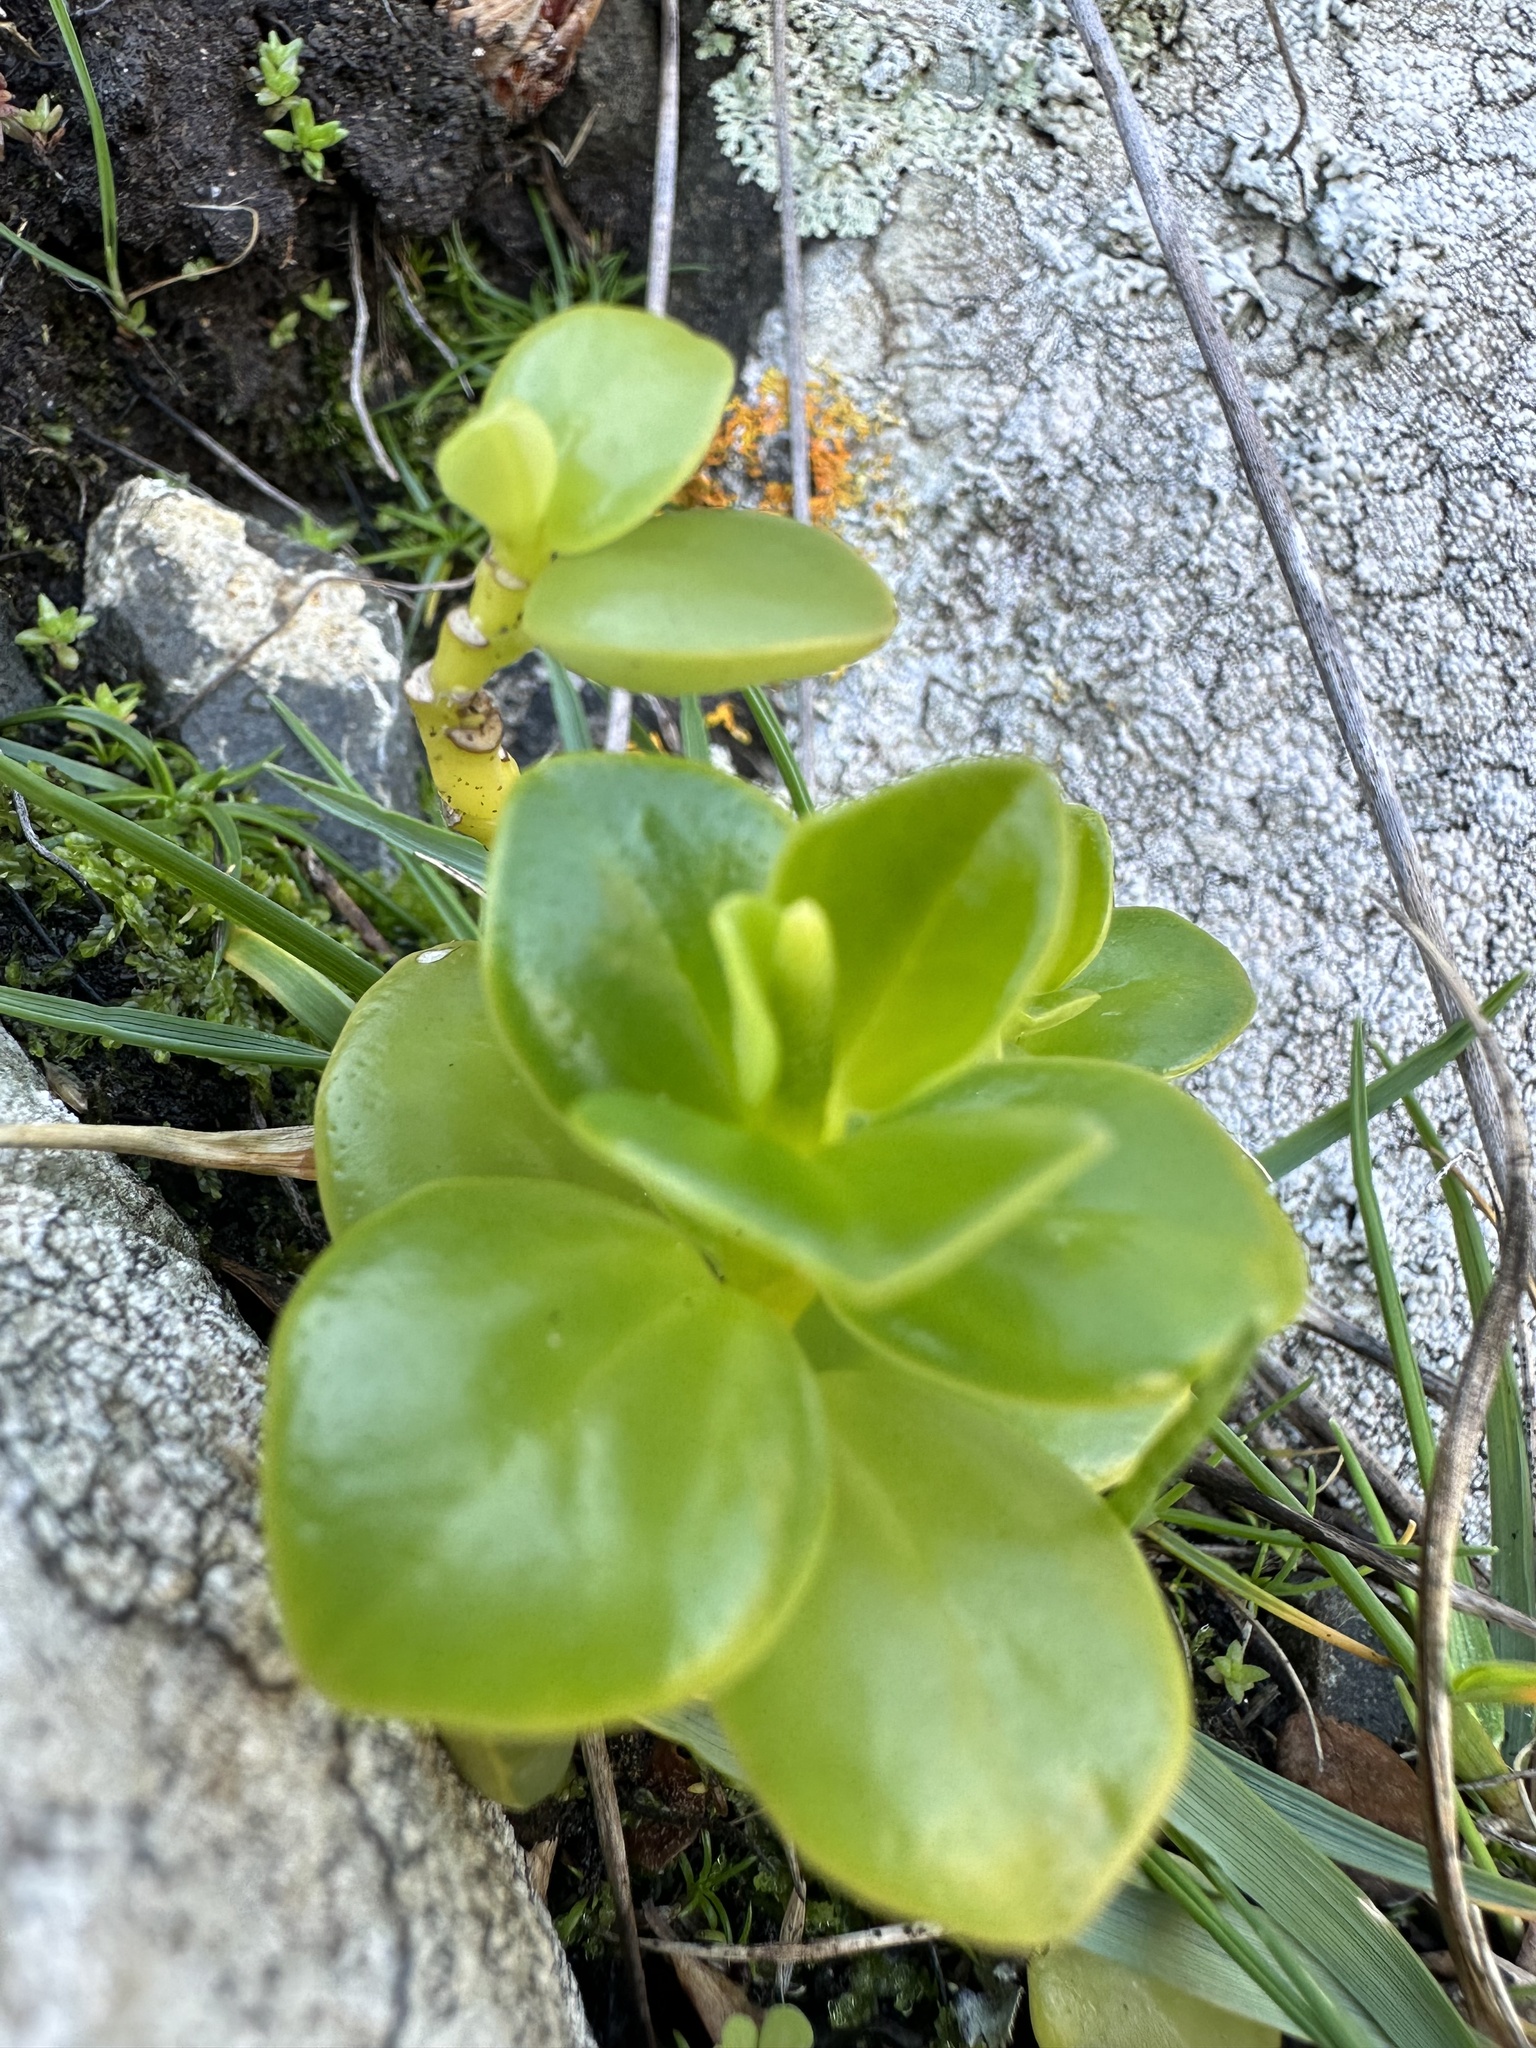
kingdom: Plantae
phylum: Tracheophyta
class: Magnoliopsida
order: Piperales
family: Piperaceae
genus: Peperomia
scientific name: Peperomia urvilleana
